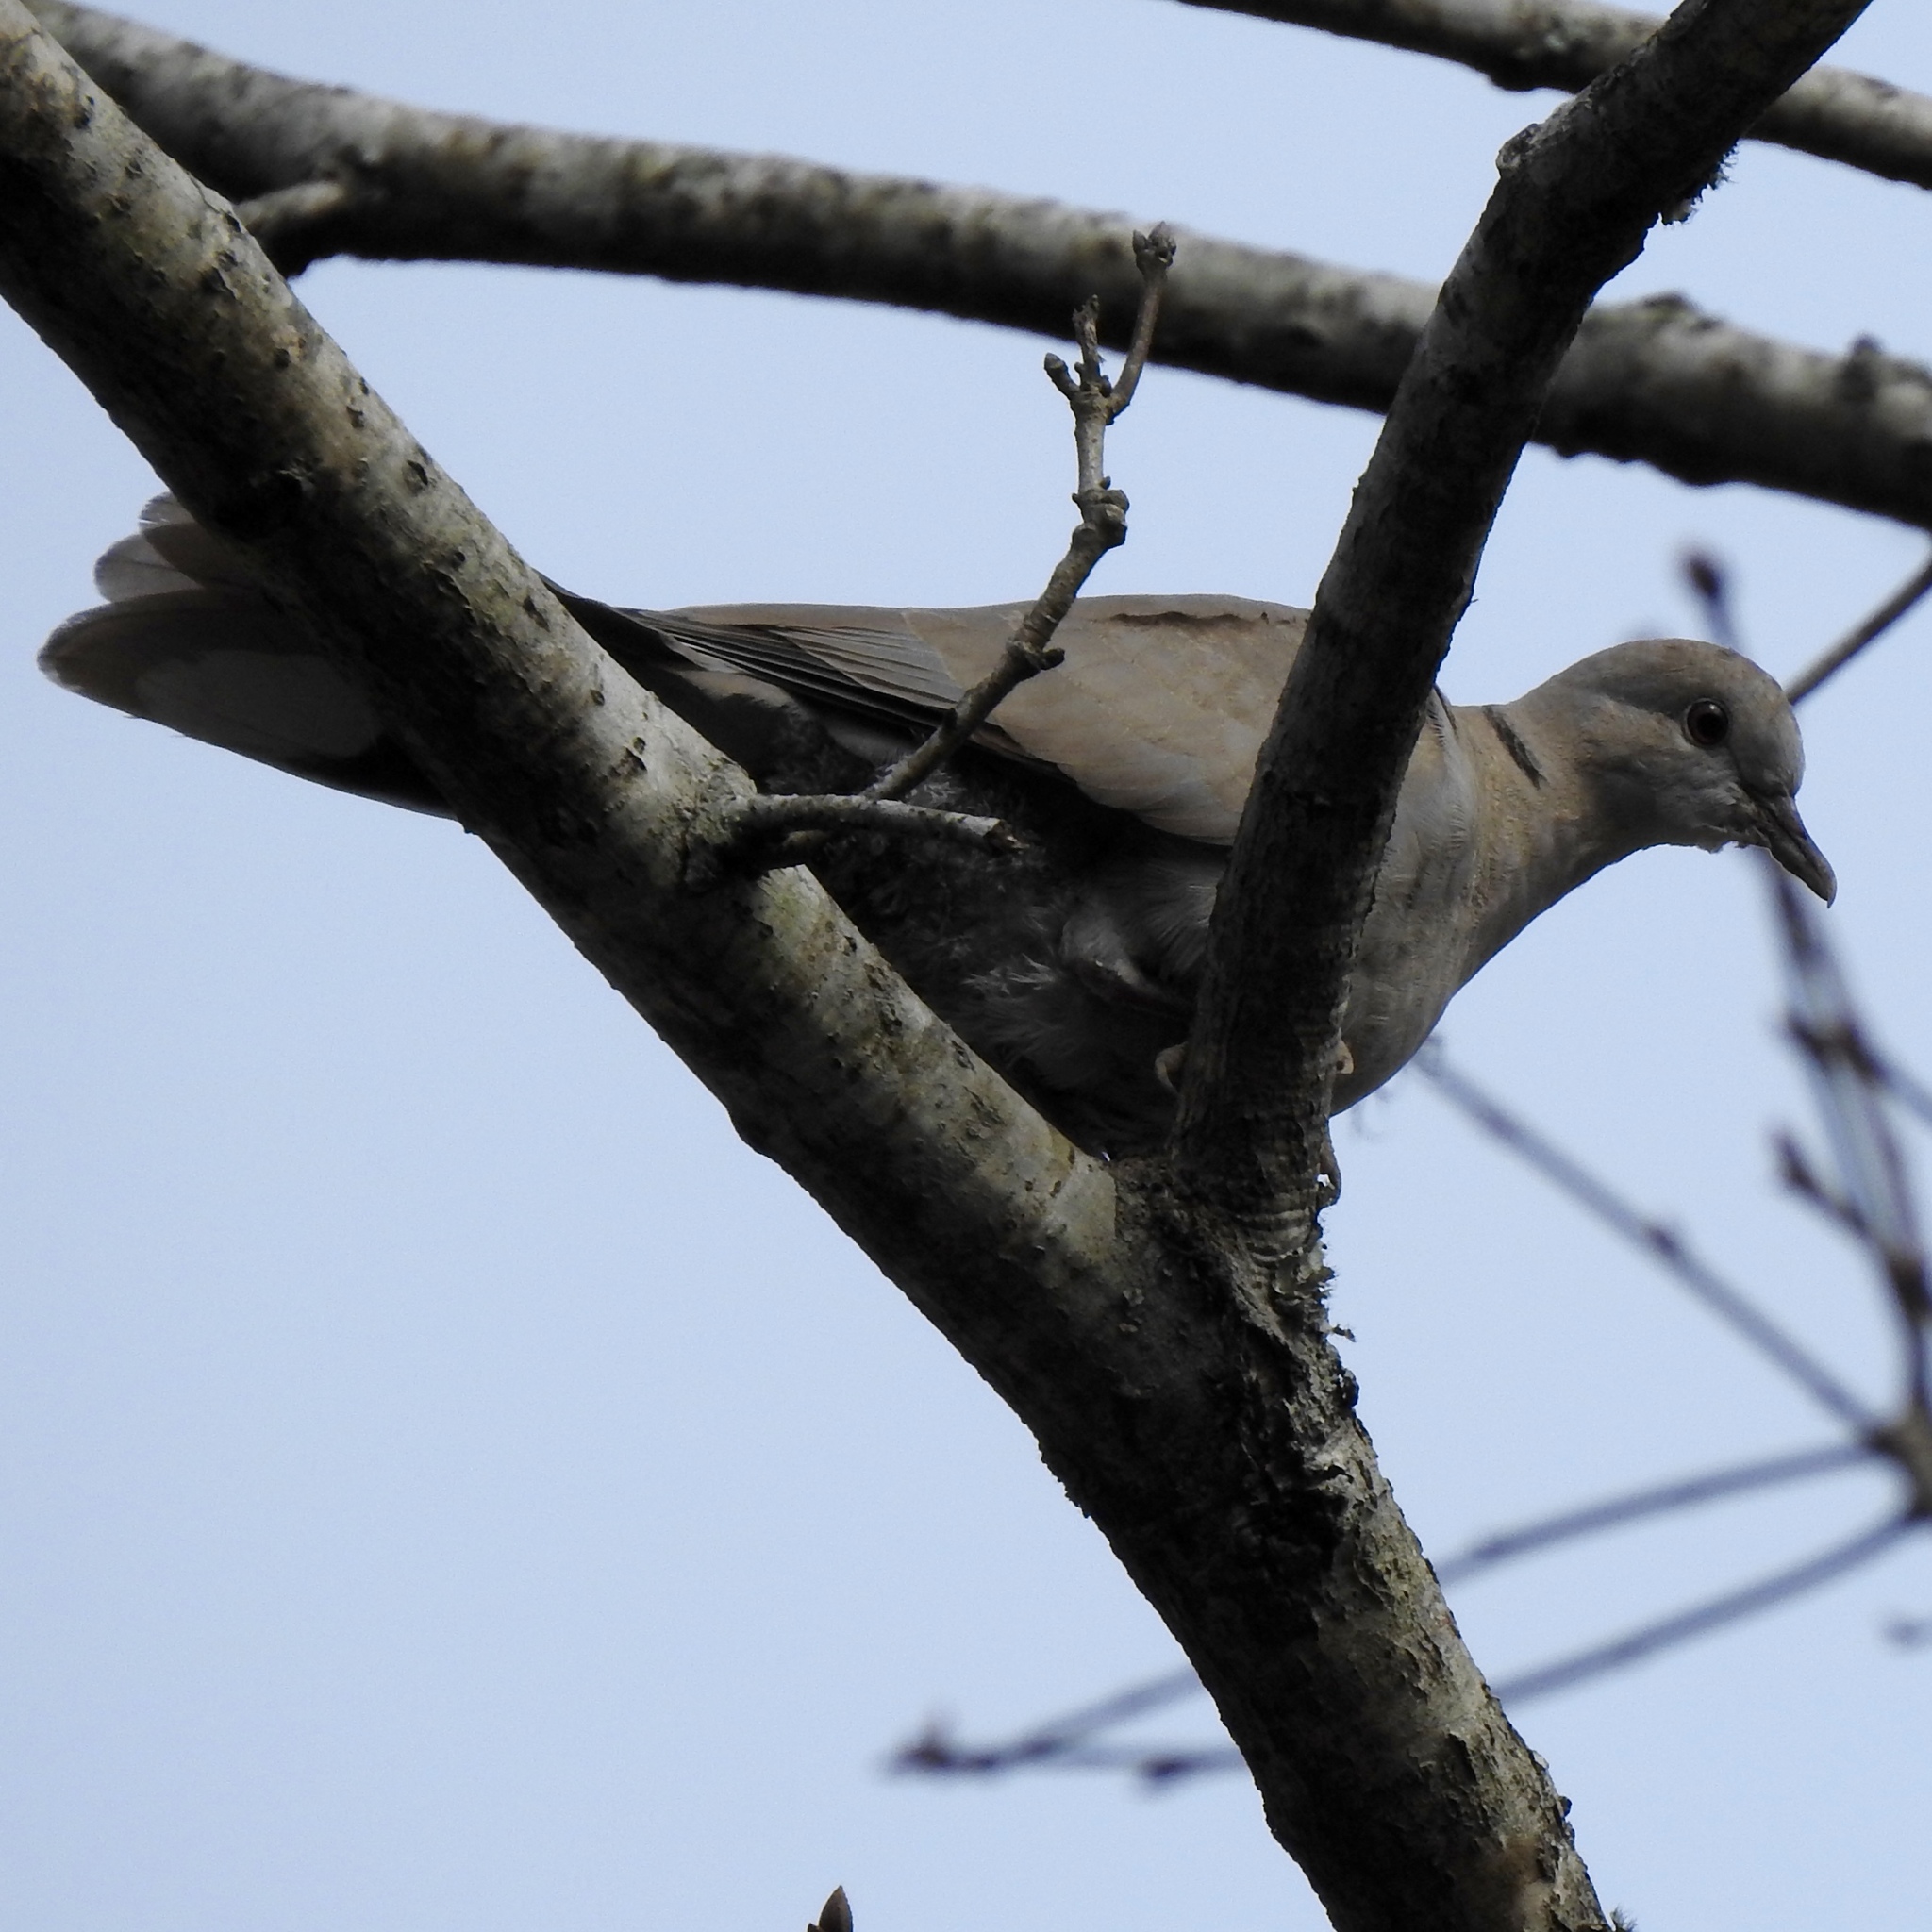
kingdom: Animalia
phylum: Chordata
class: Aves
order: Columbiformes
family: Columbidae
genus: Streptopelia
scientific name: Streptopelia decaocto
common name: Eurasian collared dove
